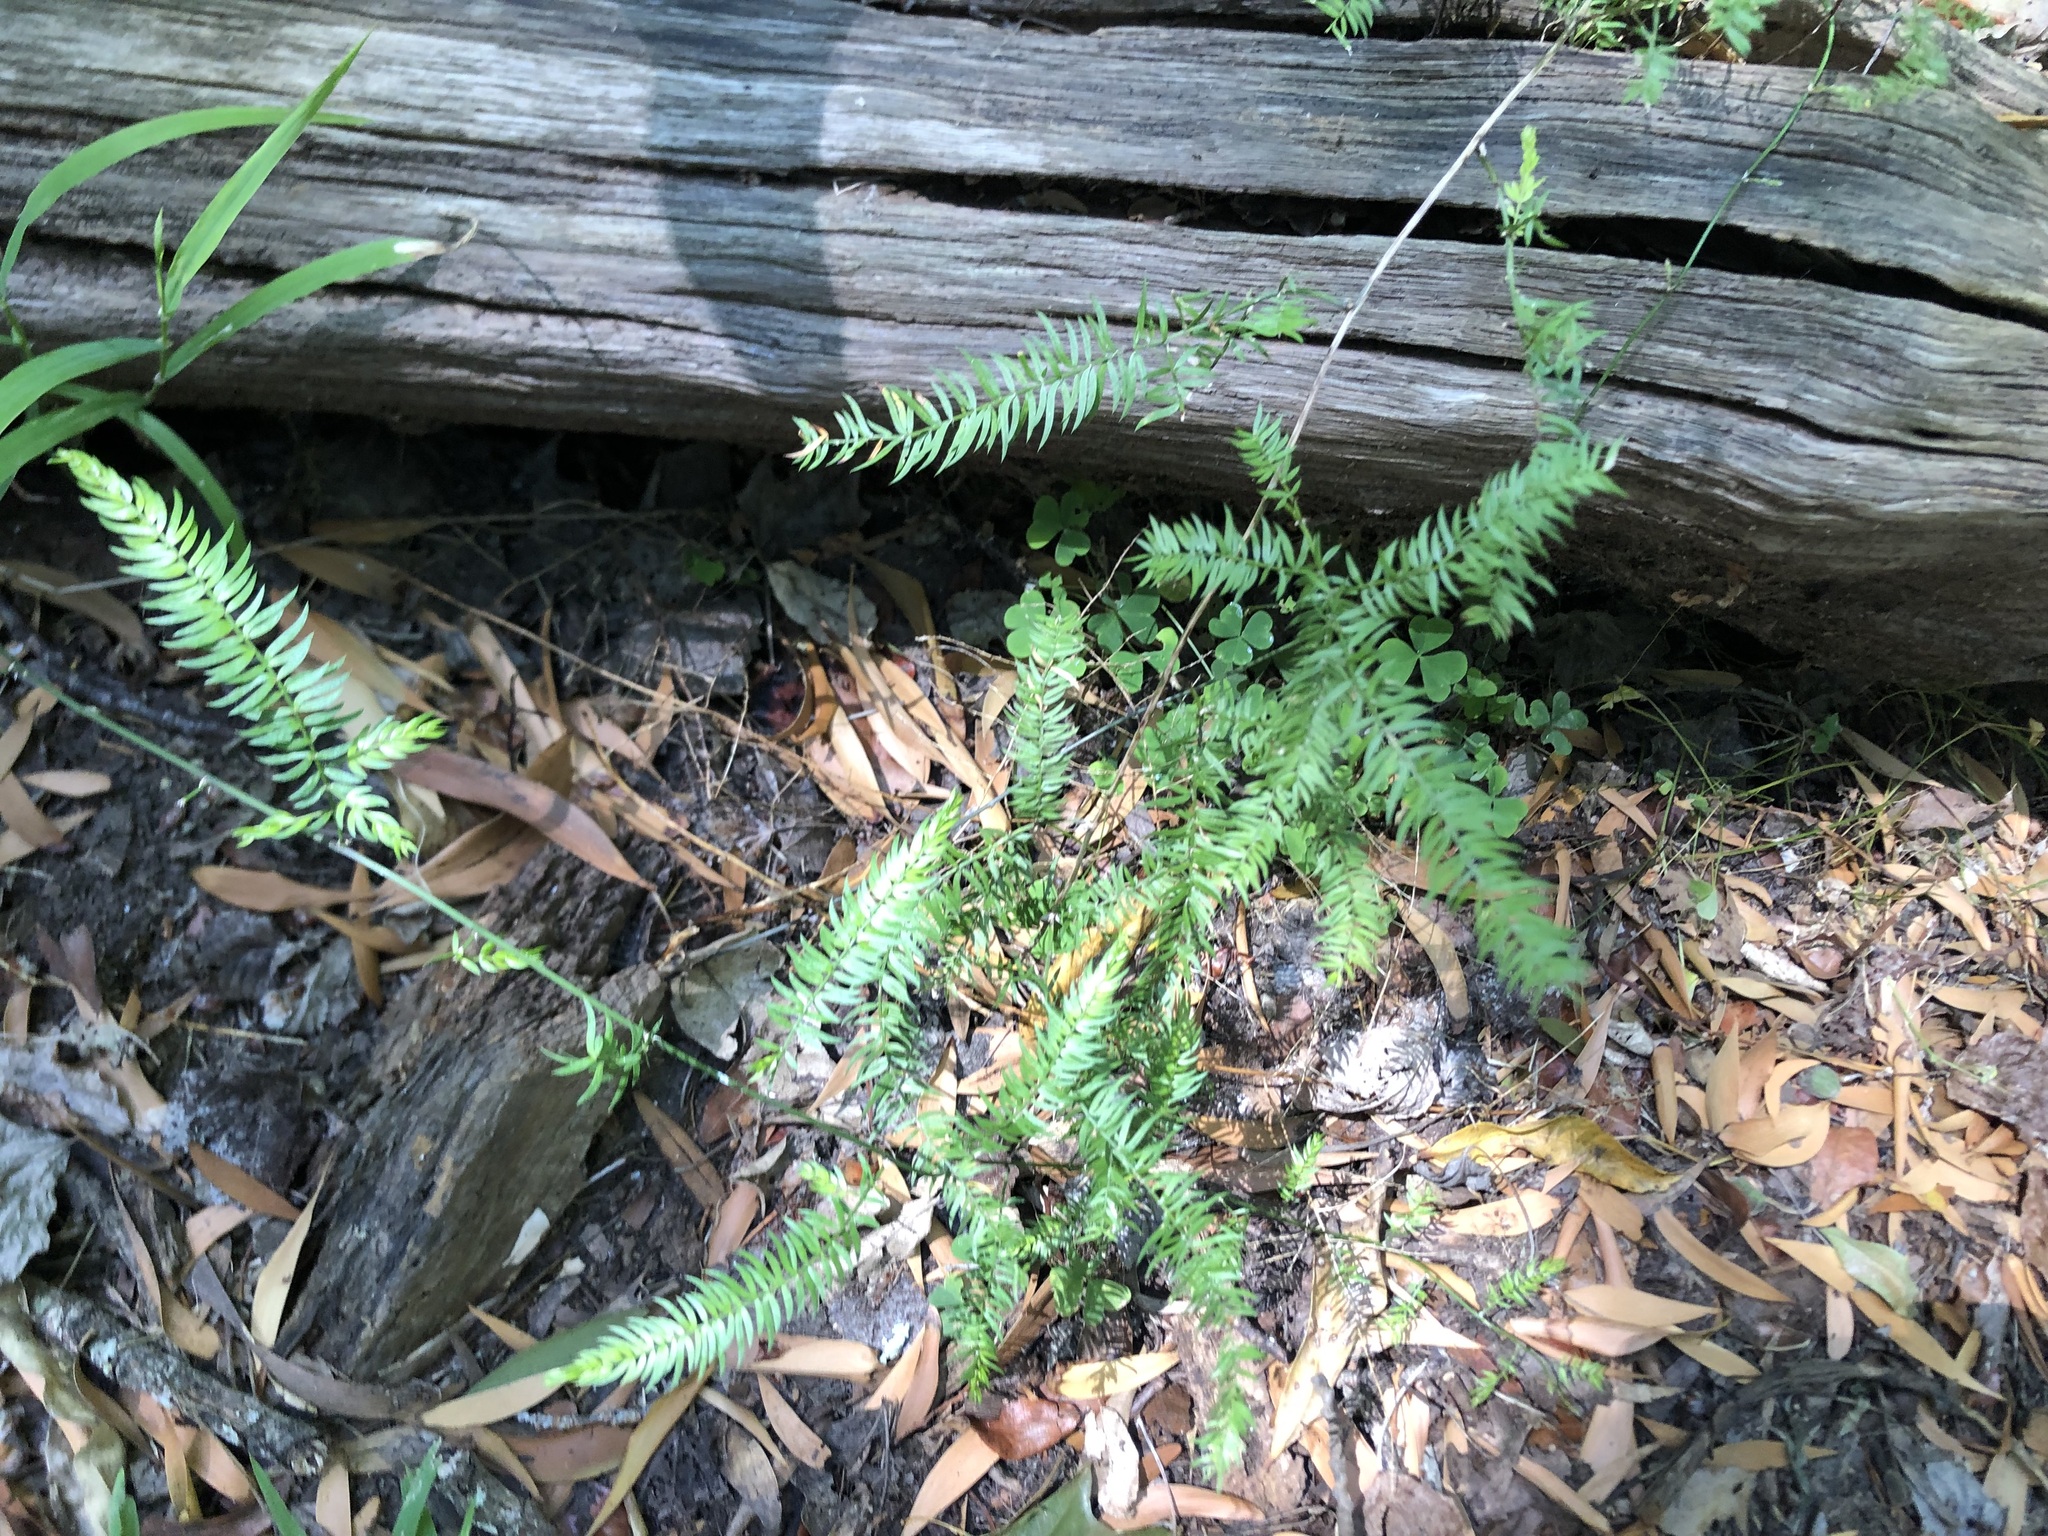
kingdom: Plantae
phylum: Tracheophyta
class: Liliopsida
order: Asparagales
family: Asparagaceae
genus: Asparagus
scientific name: Asparagus scandens
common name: Asparagus-fern
